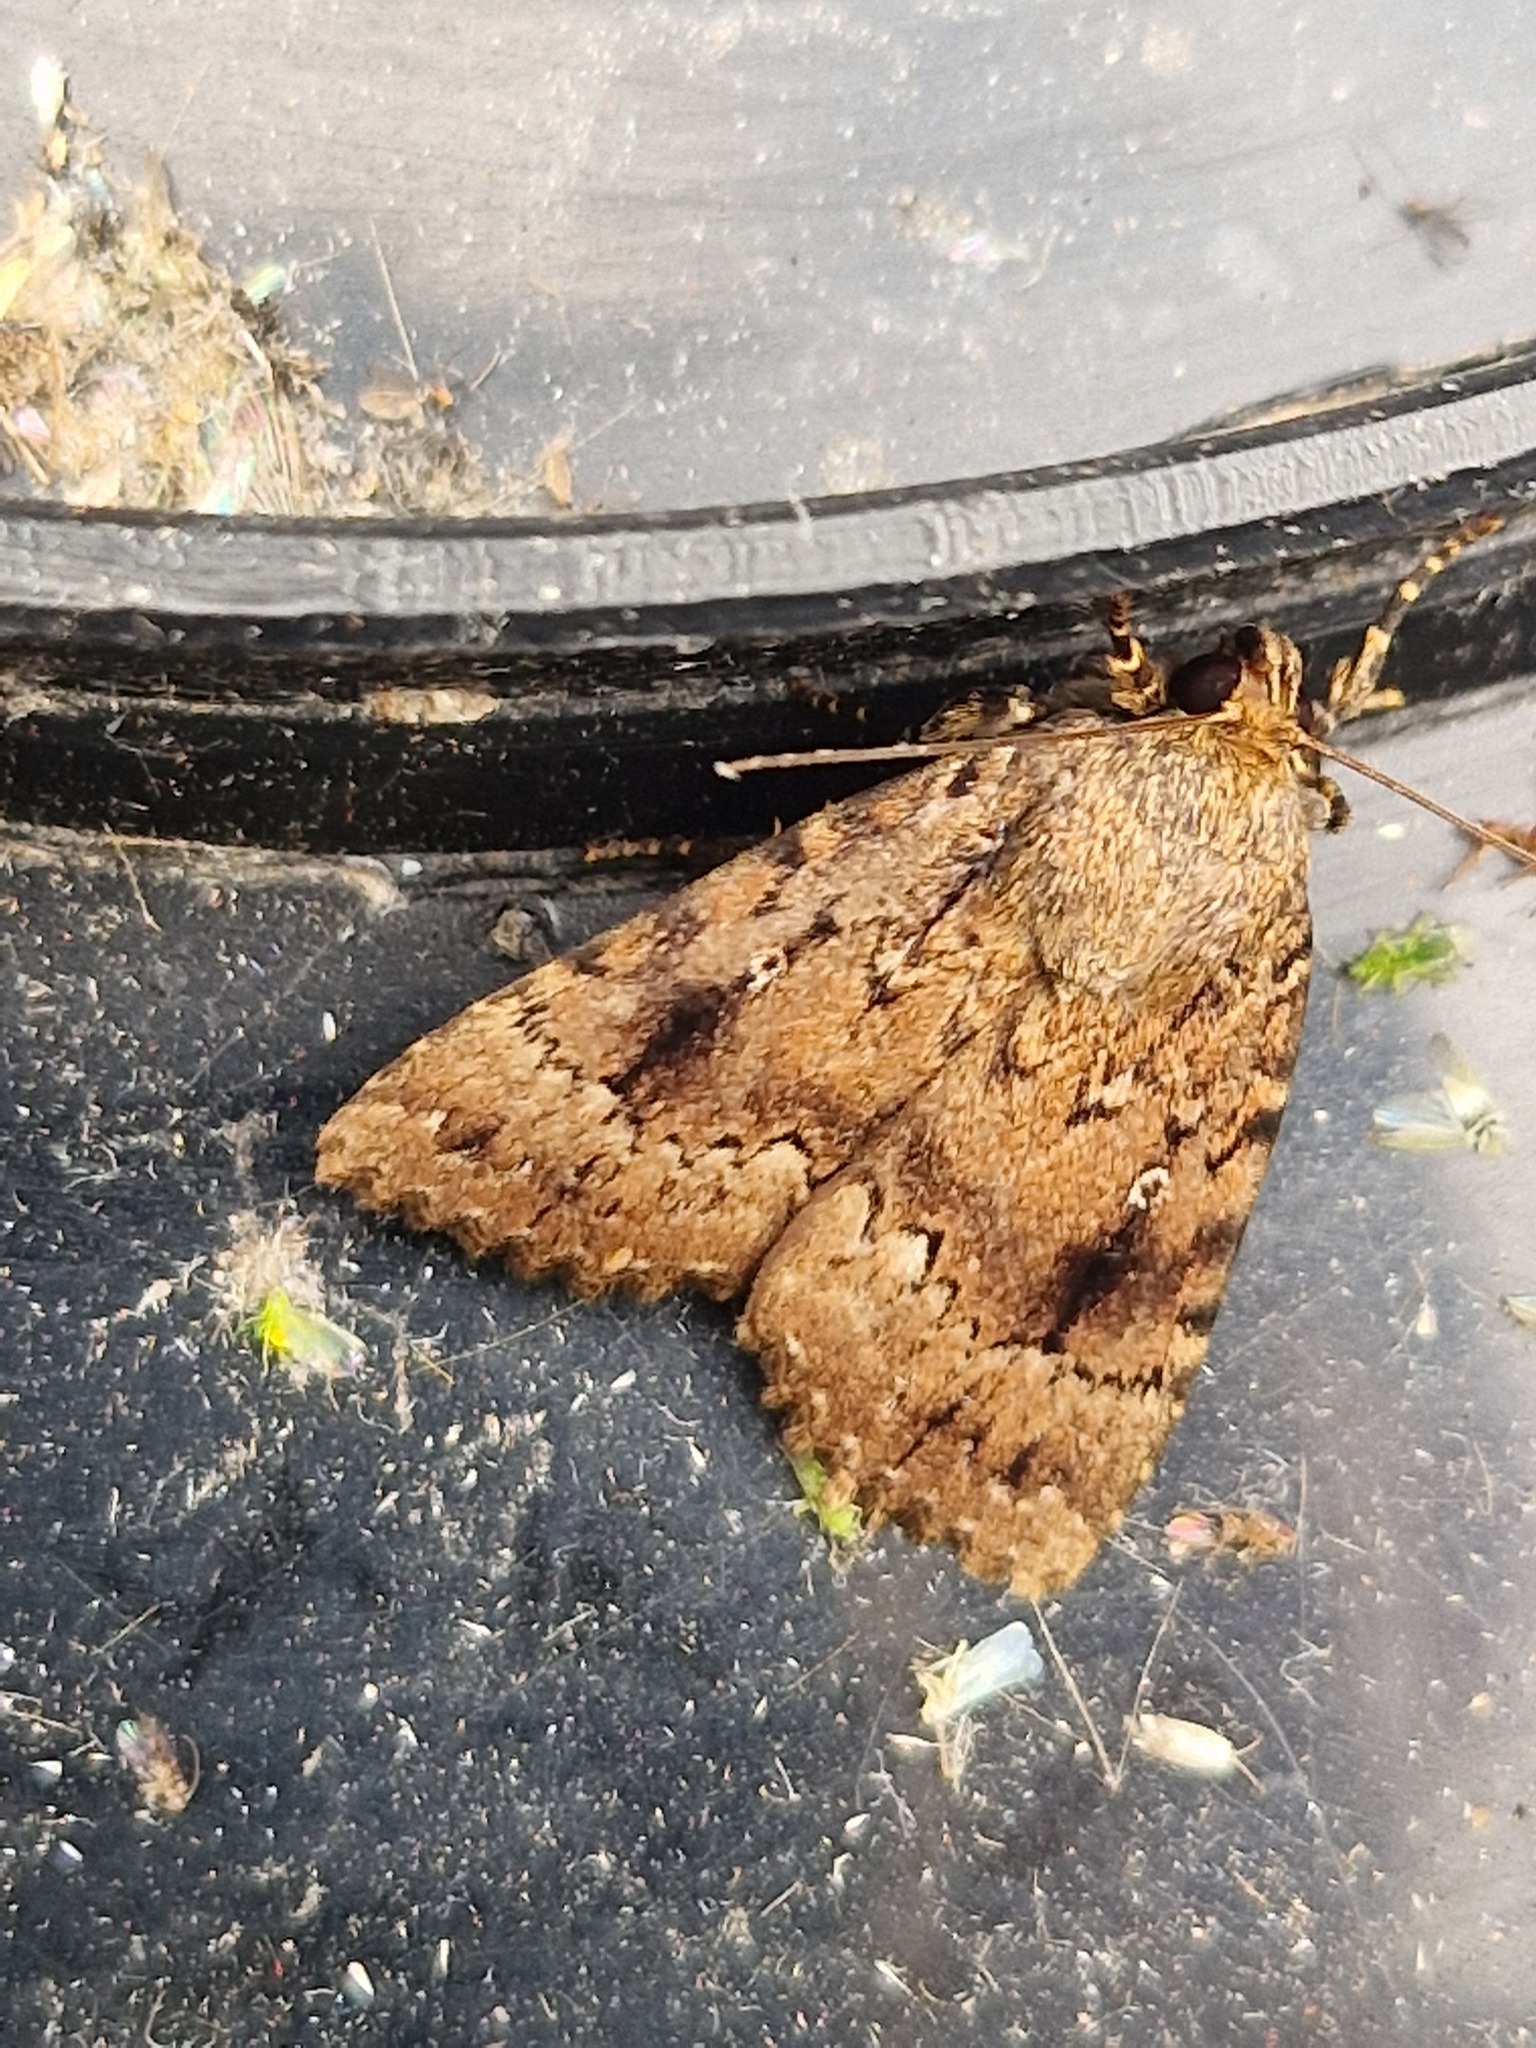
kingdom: Animalia
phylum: Arthropoda
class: Insecta
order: Lepidoptera
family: Noctuidae
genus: Amphipyra
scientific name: Amphipyra pyramidea
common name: Copper underwing
